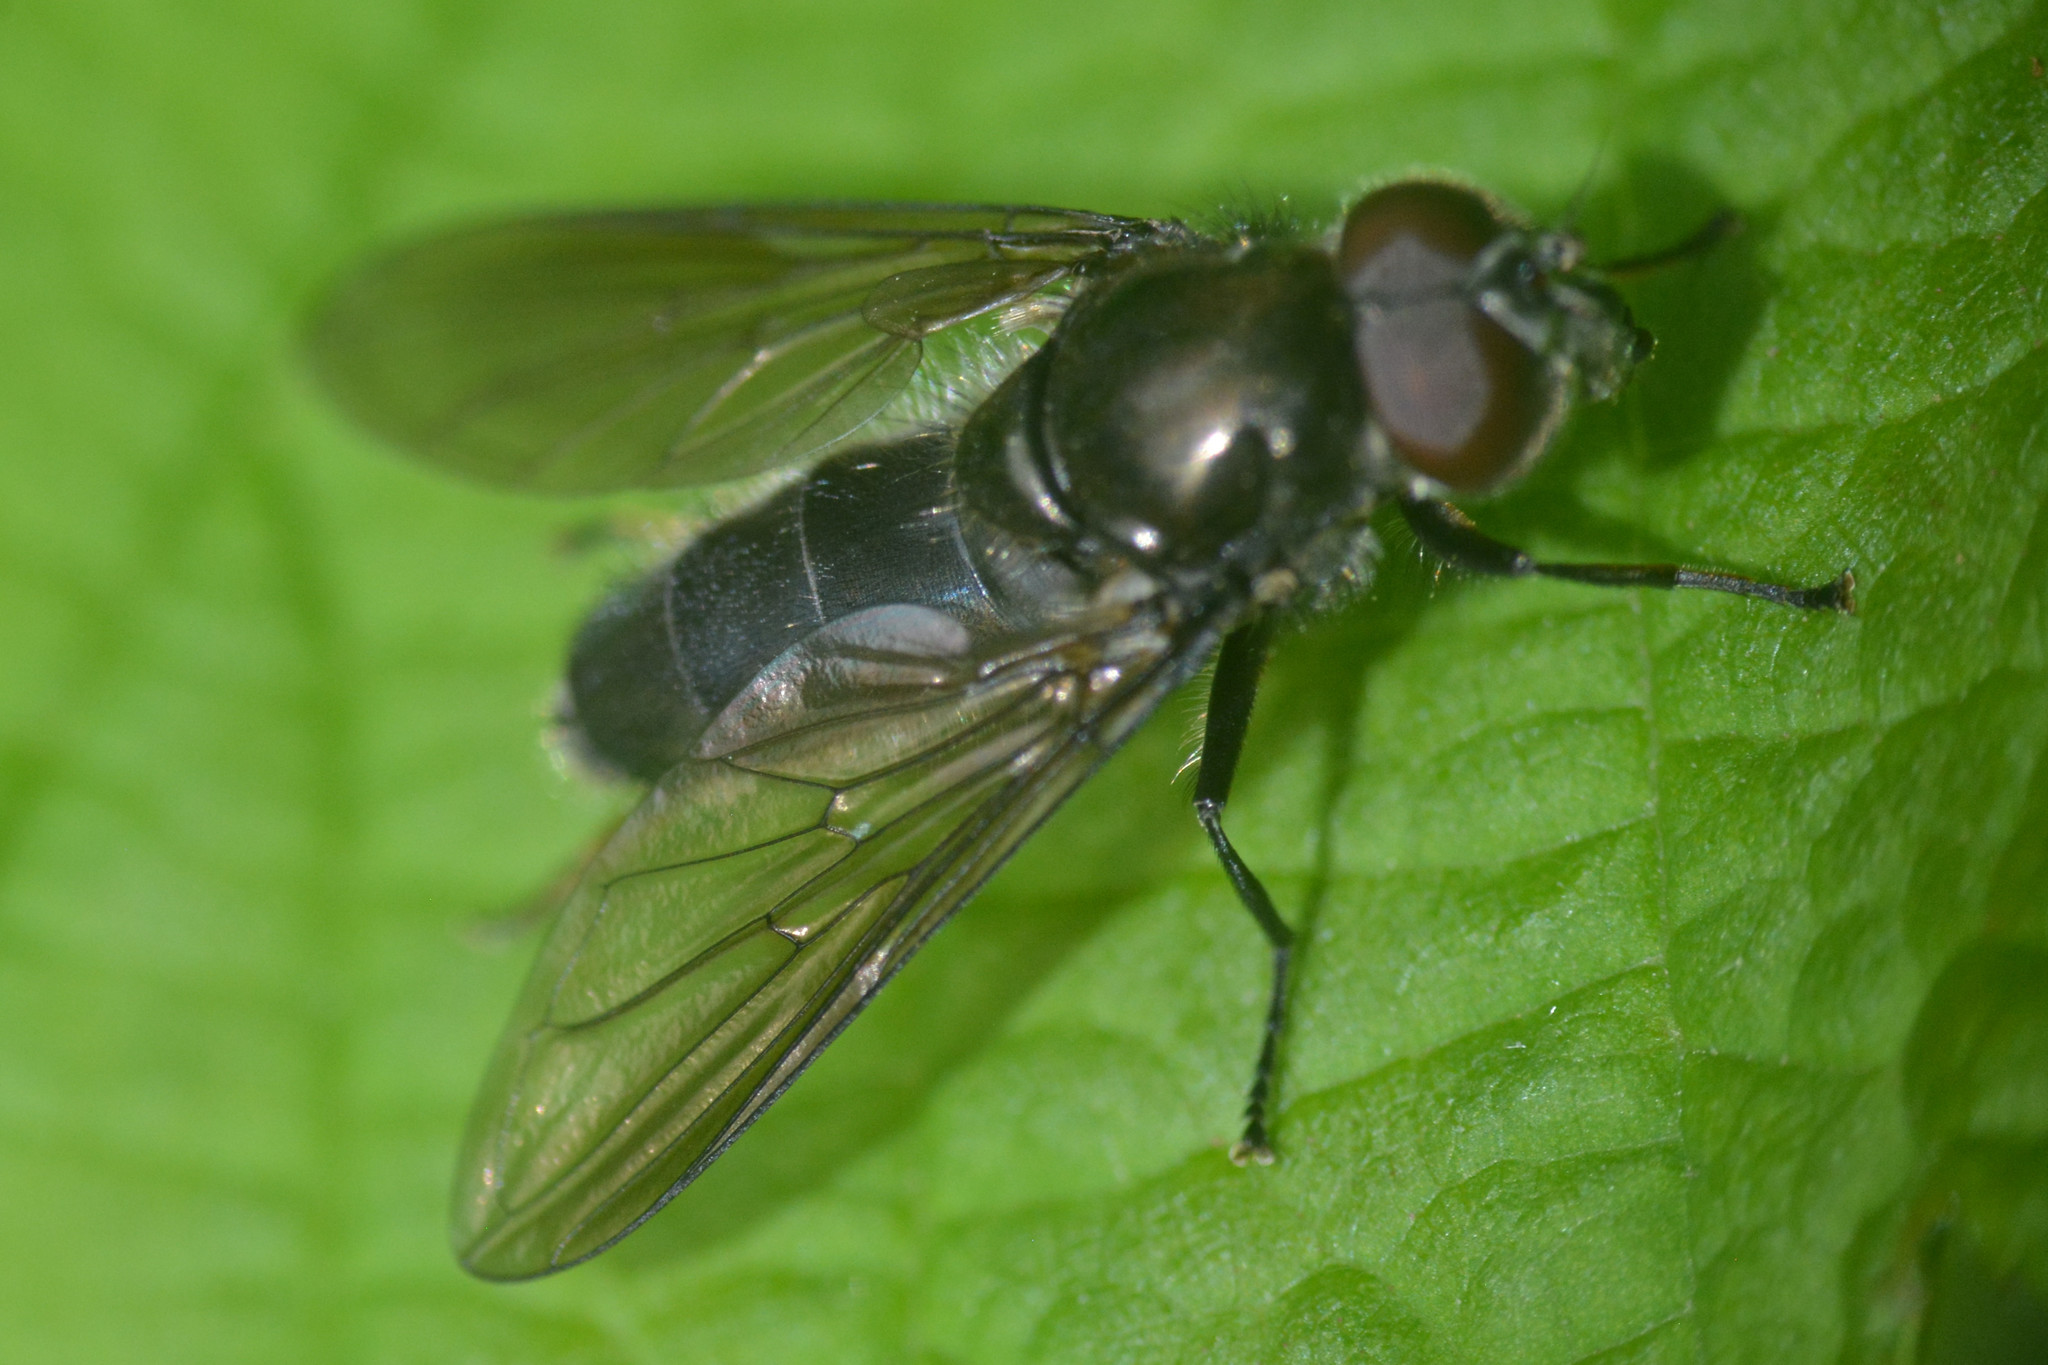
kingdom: Animalia
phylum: Arthropoda
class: Insecta
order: Diptera
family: Syrphidae
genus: Cheilosia
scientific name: Cheilosia variabilis
